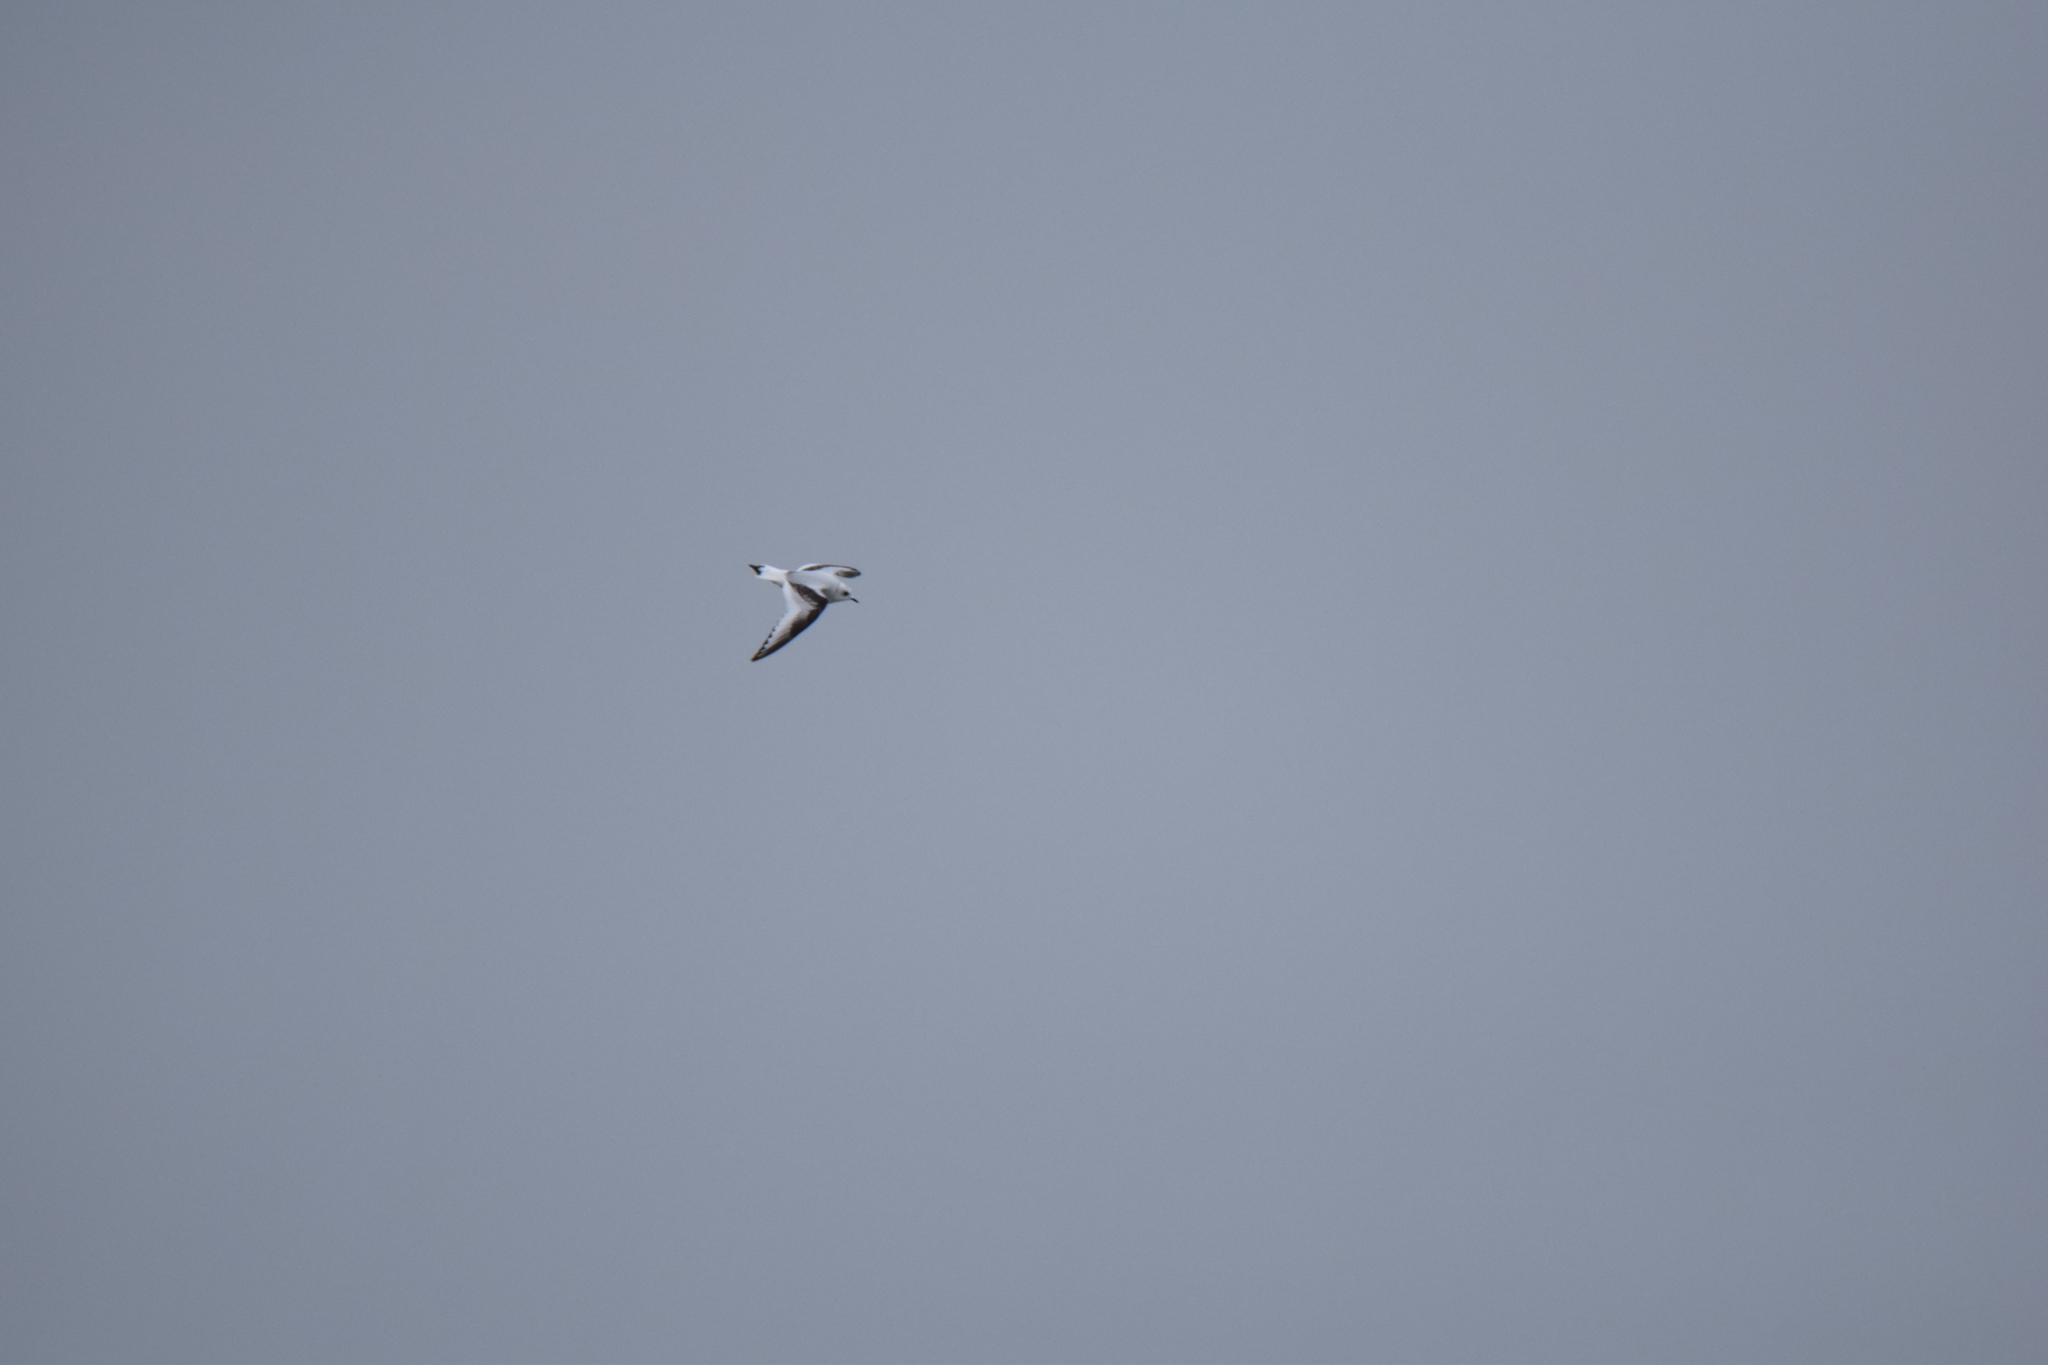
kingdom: Animalia
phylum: Chordata
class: Aves
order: Charadriiformes
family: Laridae
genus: Rhodostethia
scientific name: Rhodostethia rosea
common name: Ross's gull
